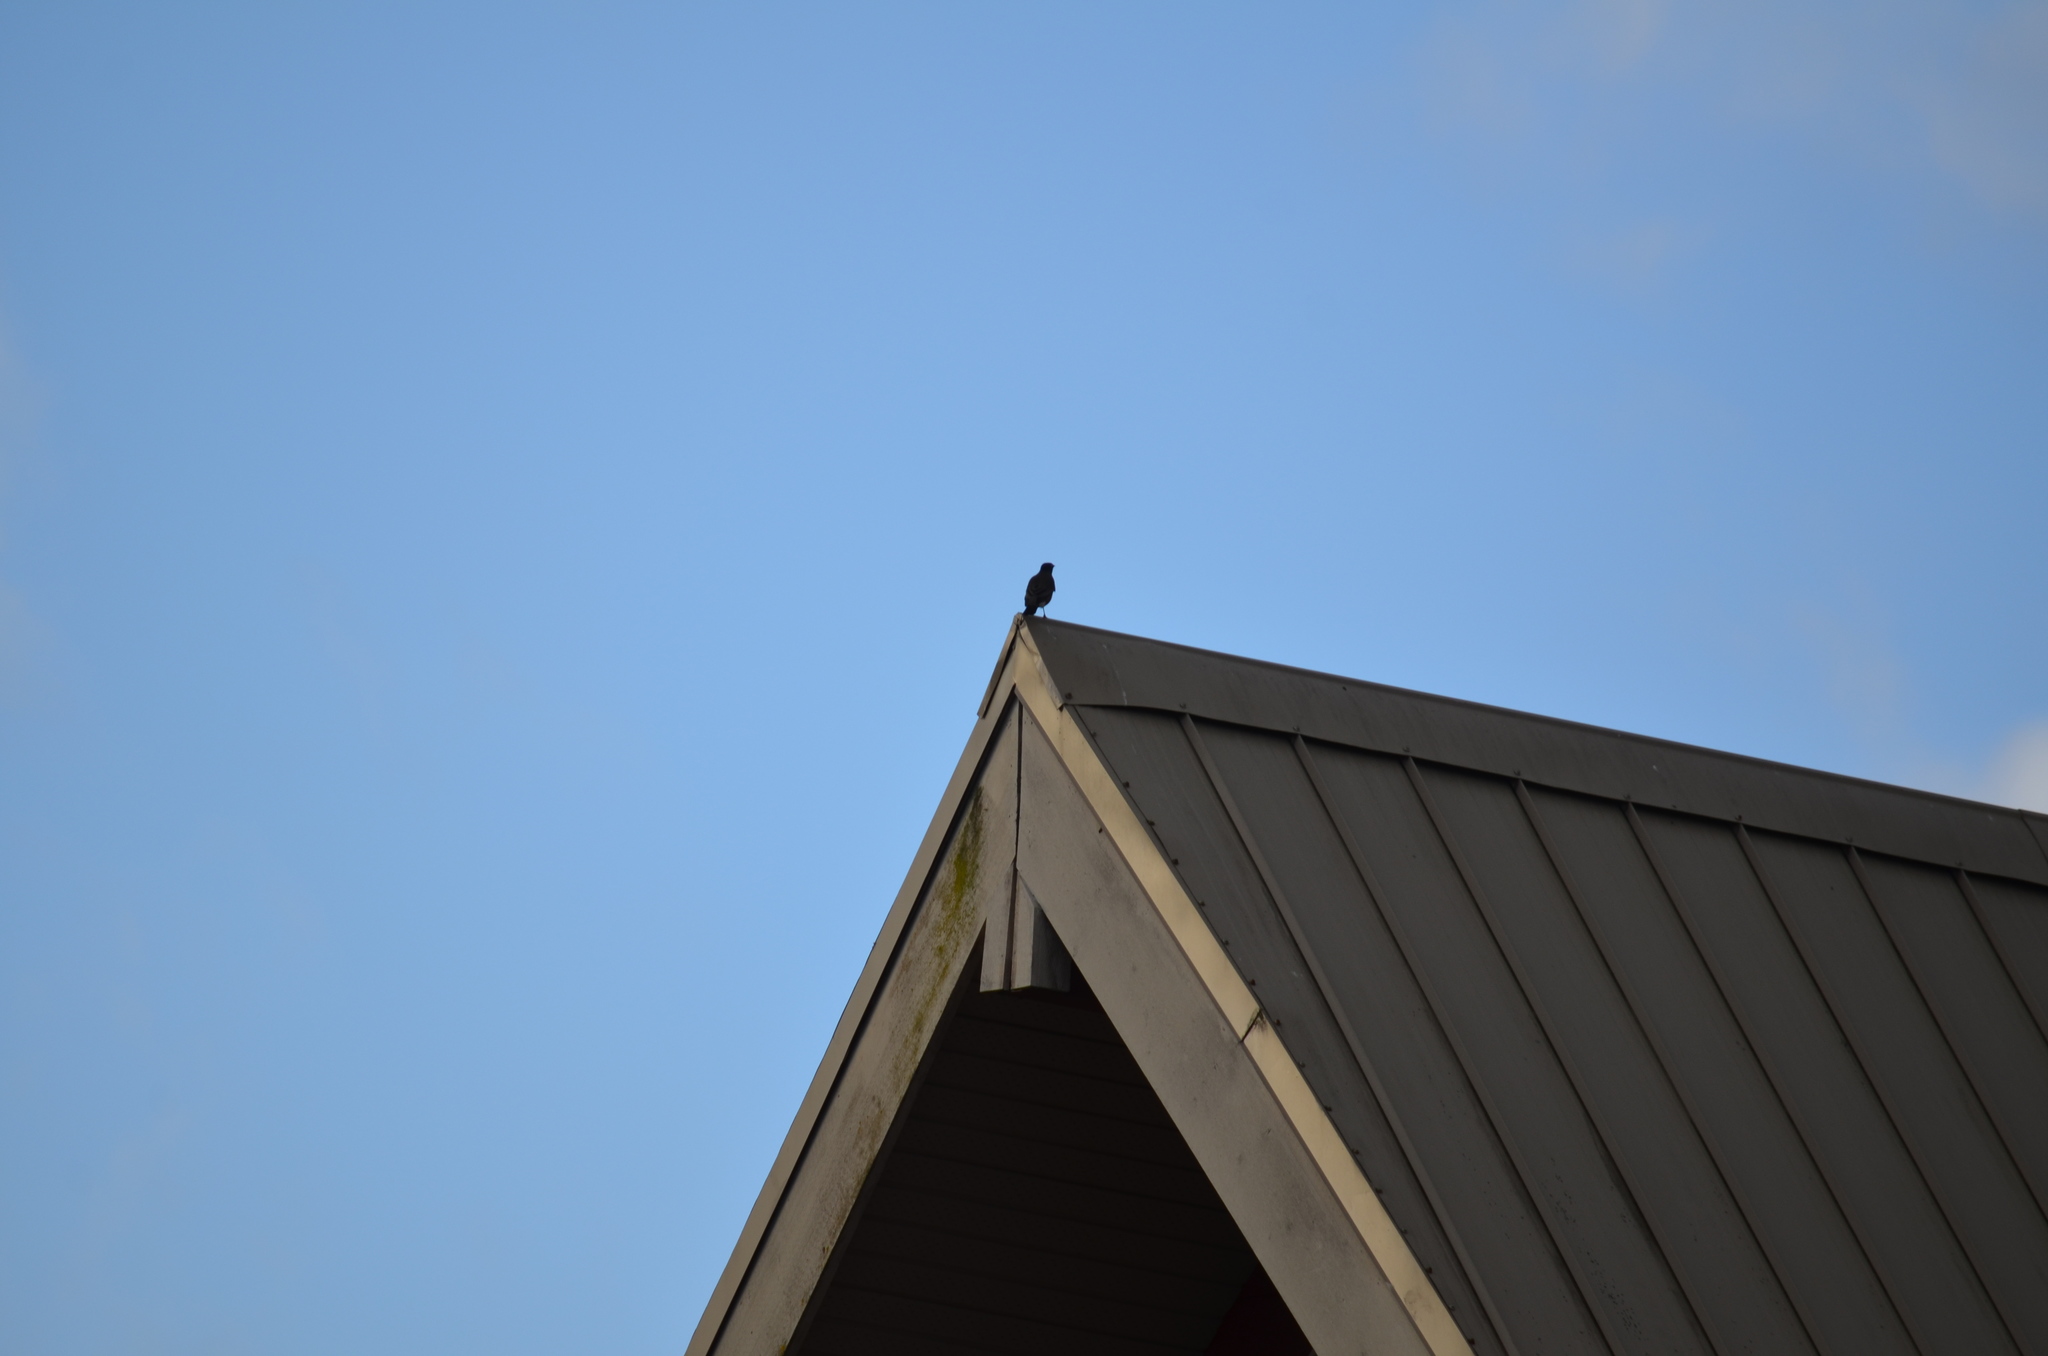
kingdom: Animalia
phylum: Chordata
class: Aves
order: Passeriformes
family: Turdidae
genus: Turdus
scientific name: Turdus migratorius
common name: American robin
